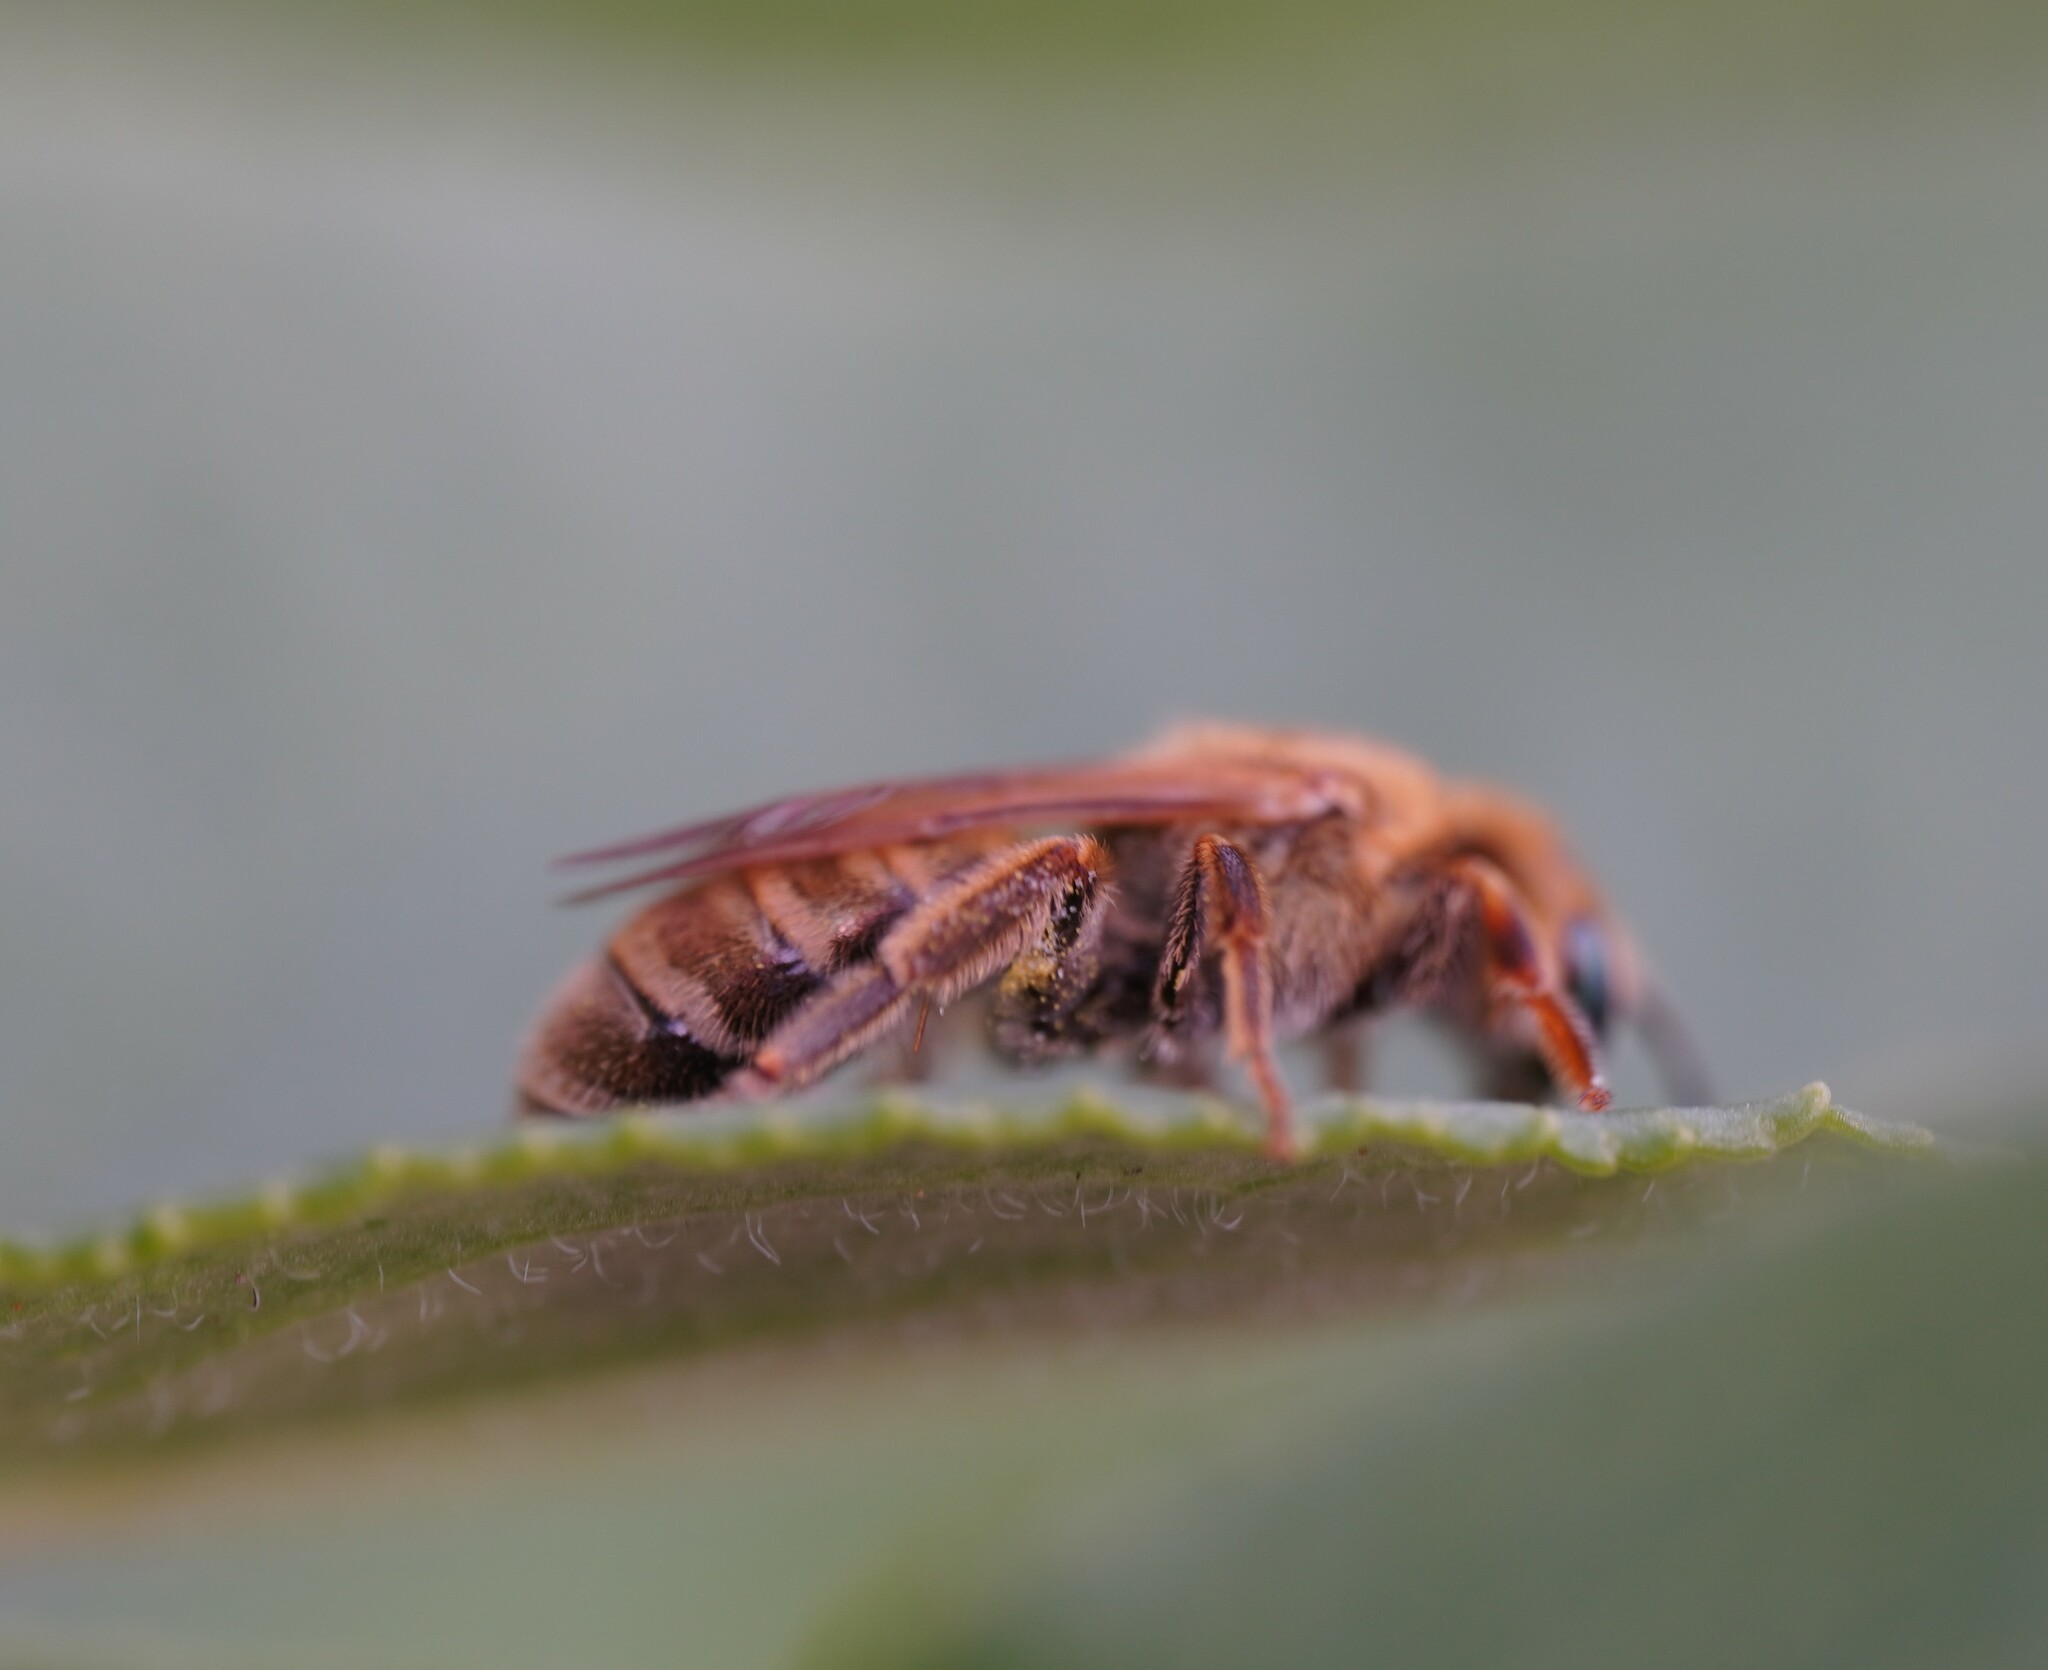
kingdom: Animalia
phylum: Arthropoda
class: Insecta
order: Hymenoptera
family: Halictidae
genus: Halictus
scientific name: Halictus subauratus
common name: Golden furrow bee
